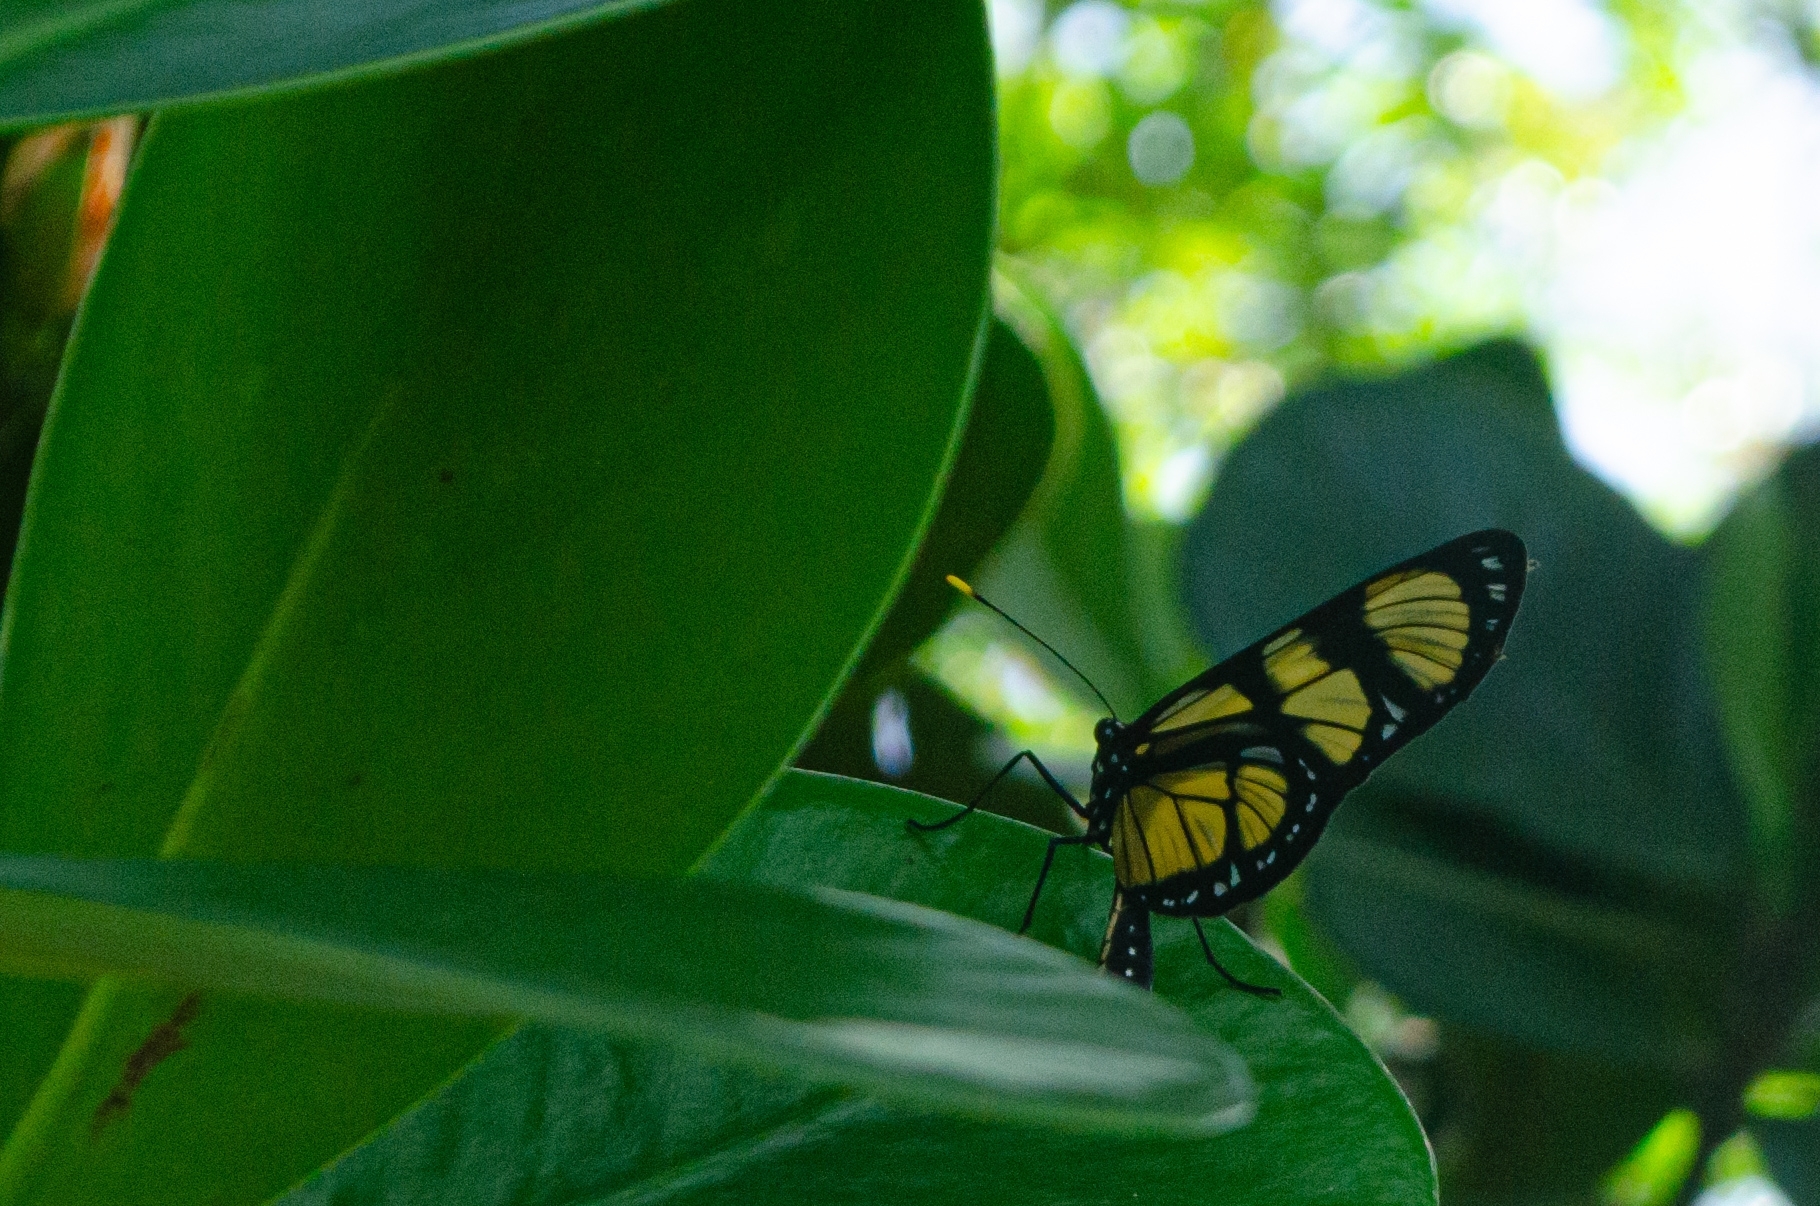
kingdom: Animalia
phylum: Arthropoda
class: Insecta
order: Lepidoptera
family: Nymphalidae
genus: Methona
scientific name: Methona themisto
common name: Themisto amberwing
